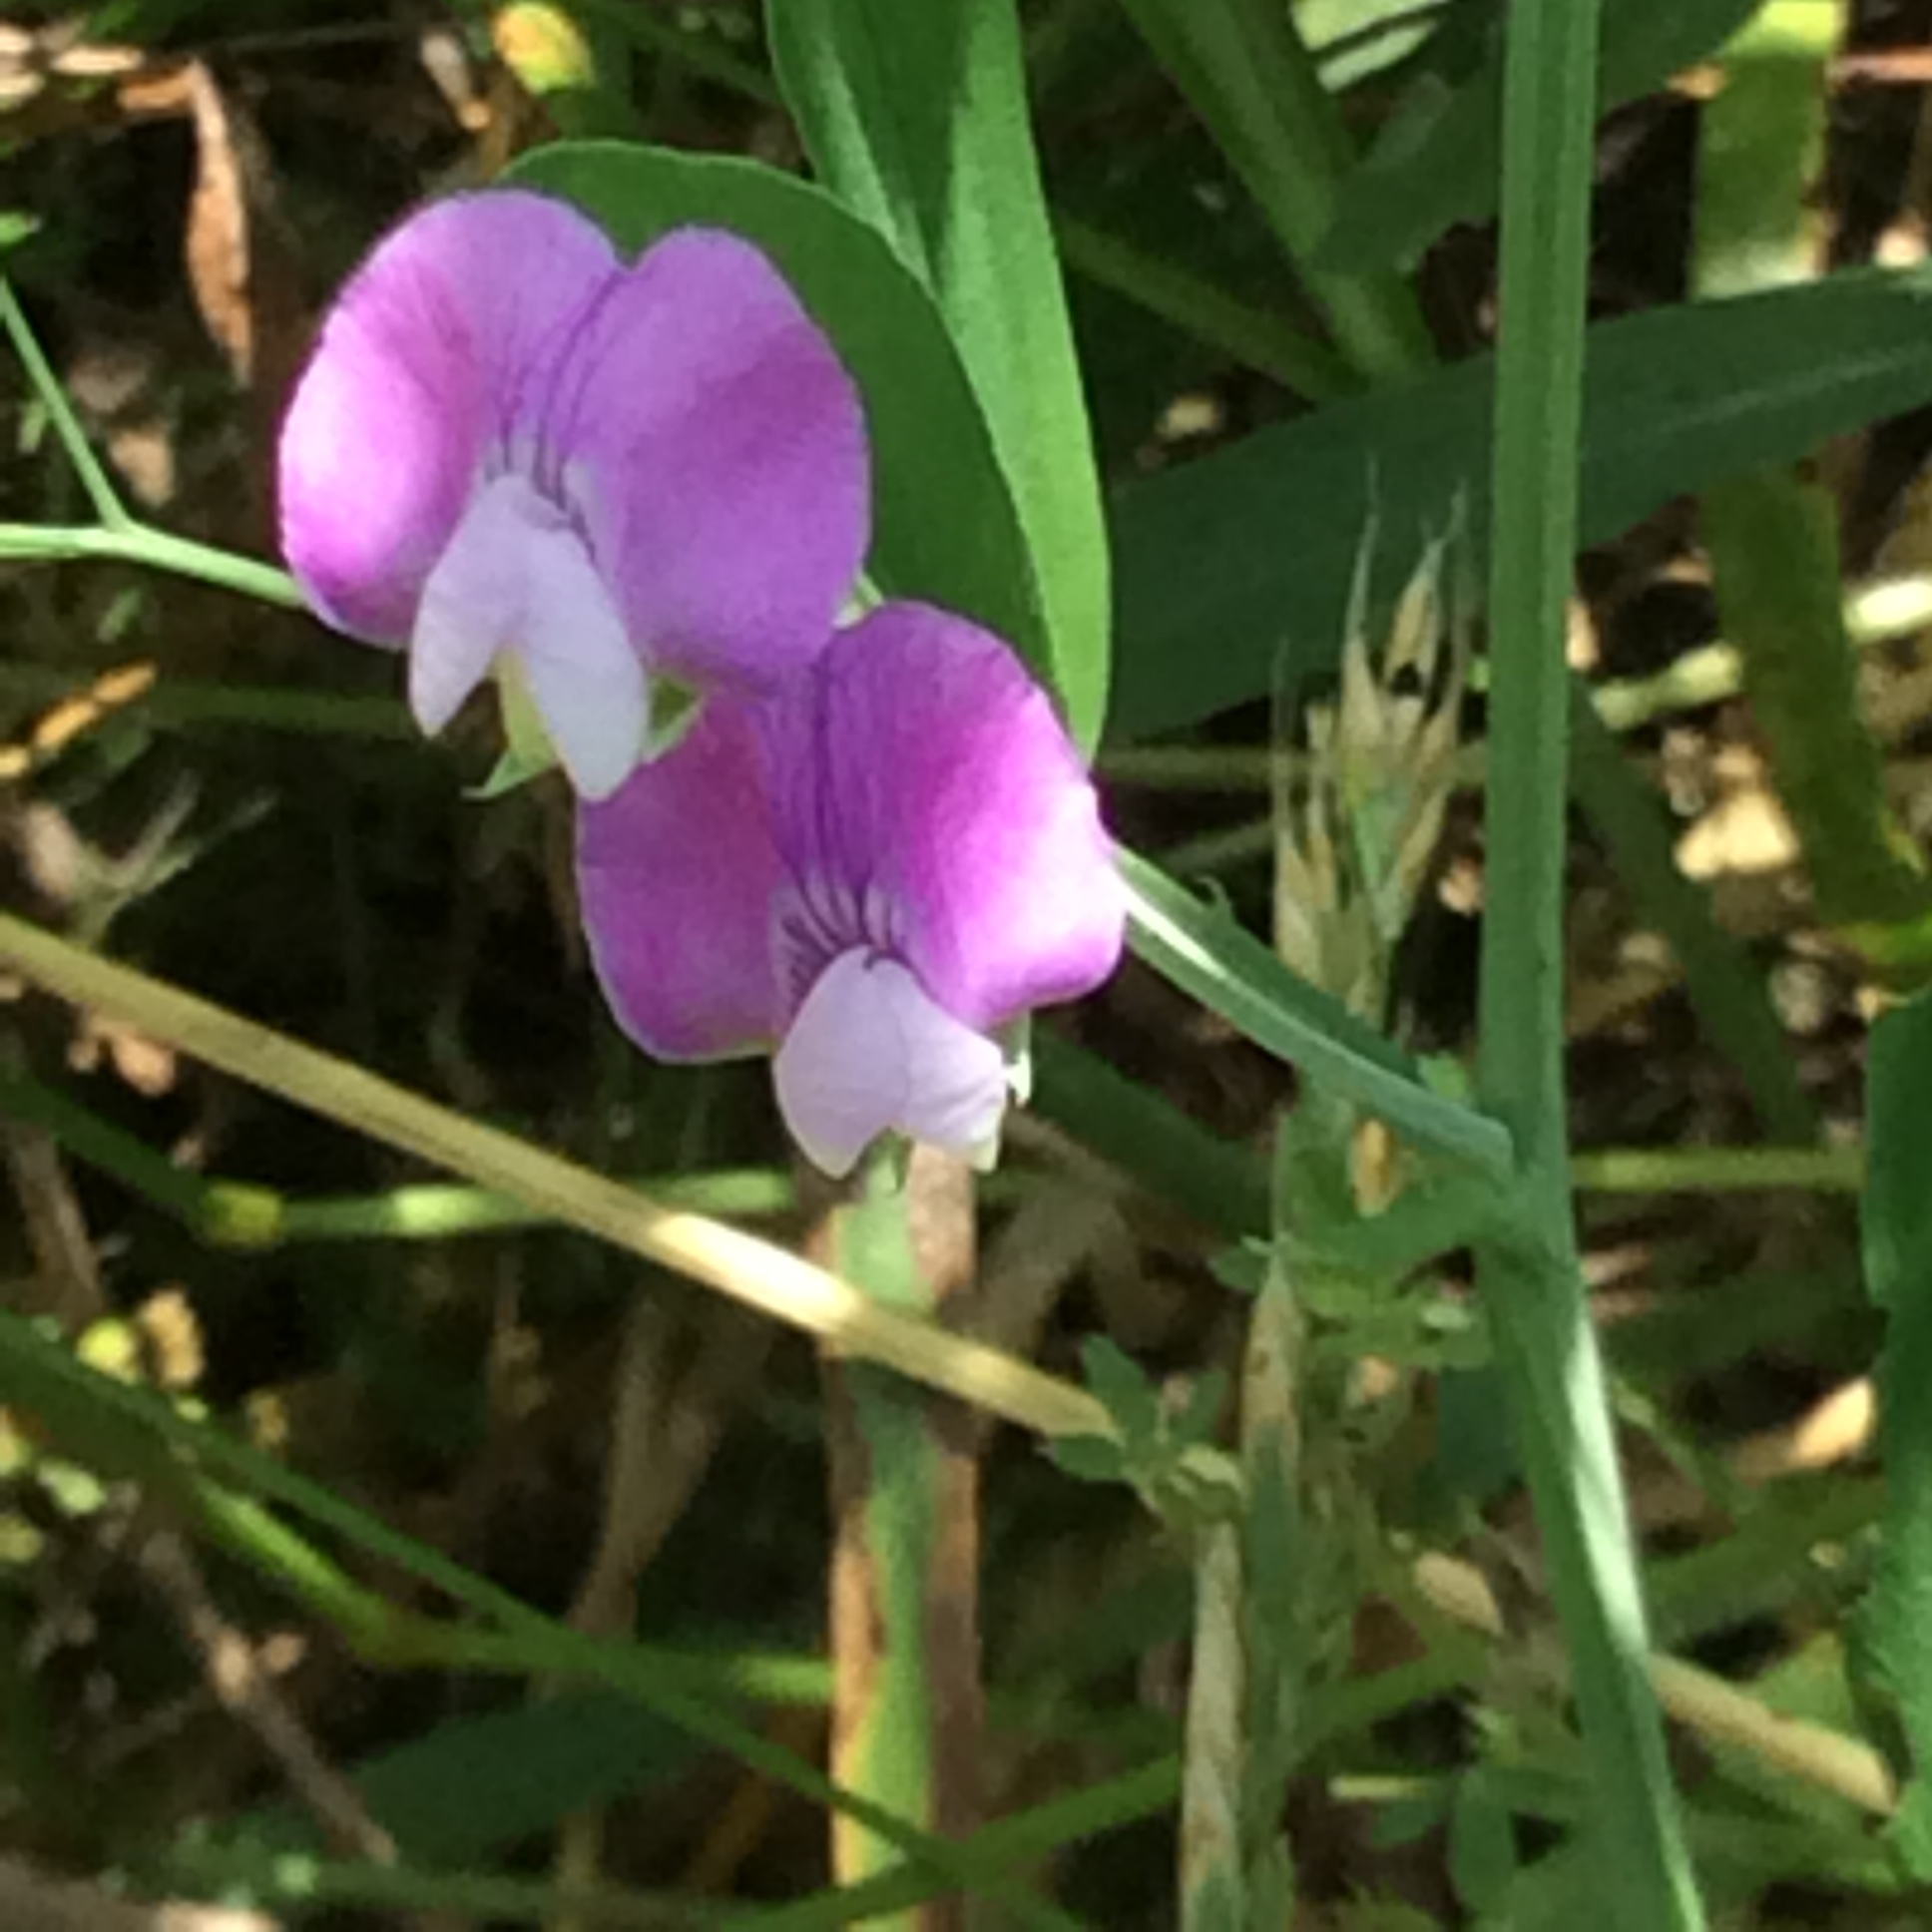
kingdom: Plantae
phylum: Tracheophyta
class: Magnoliopsida
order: Fabales
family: Fabaceae
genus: Lathyrus
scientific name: Lathyrus hirsutus
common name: Hairy vetchling
